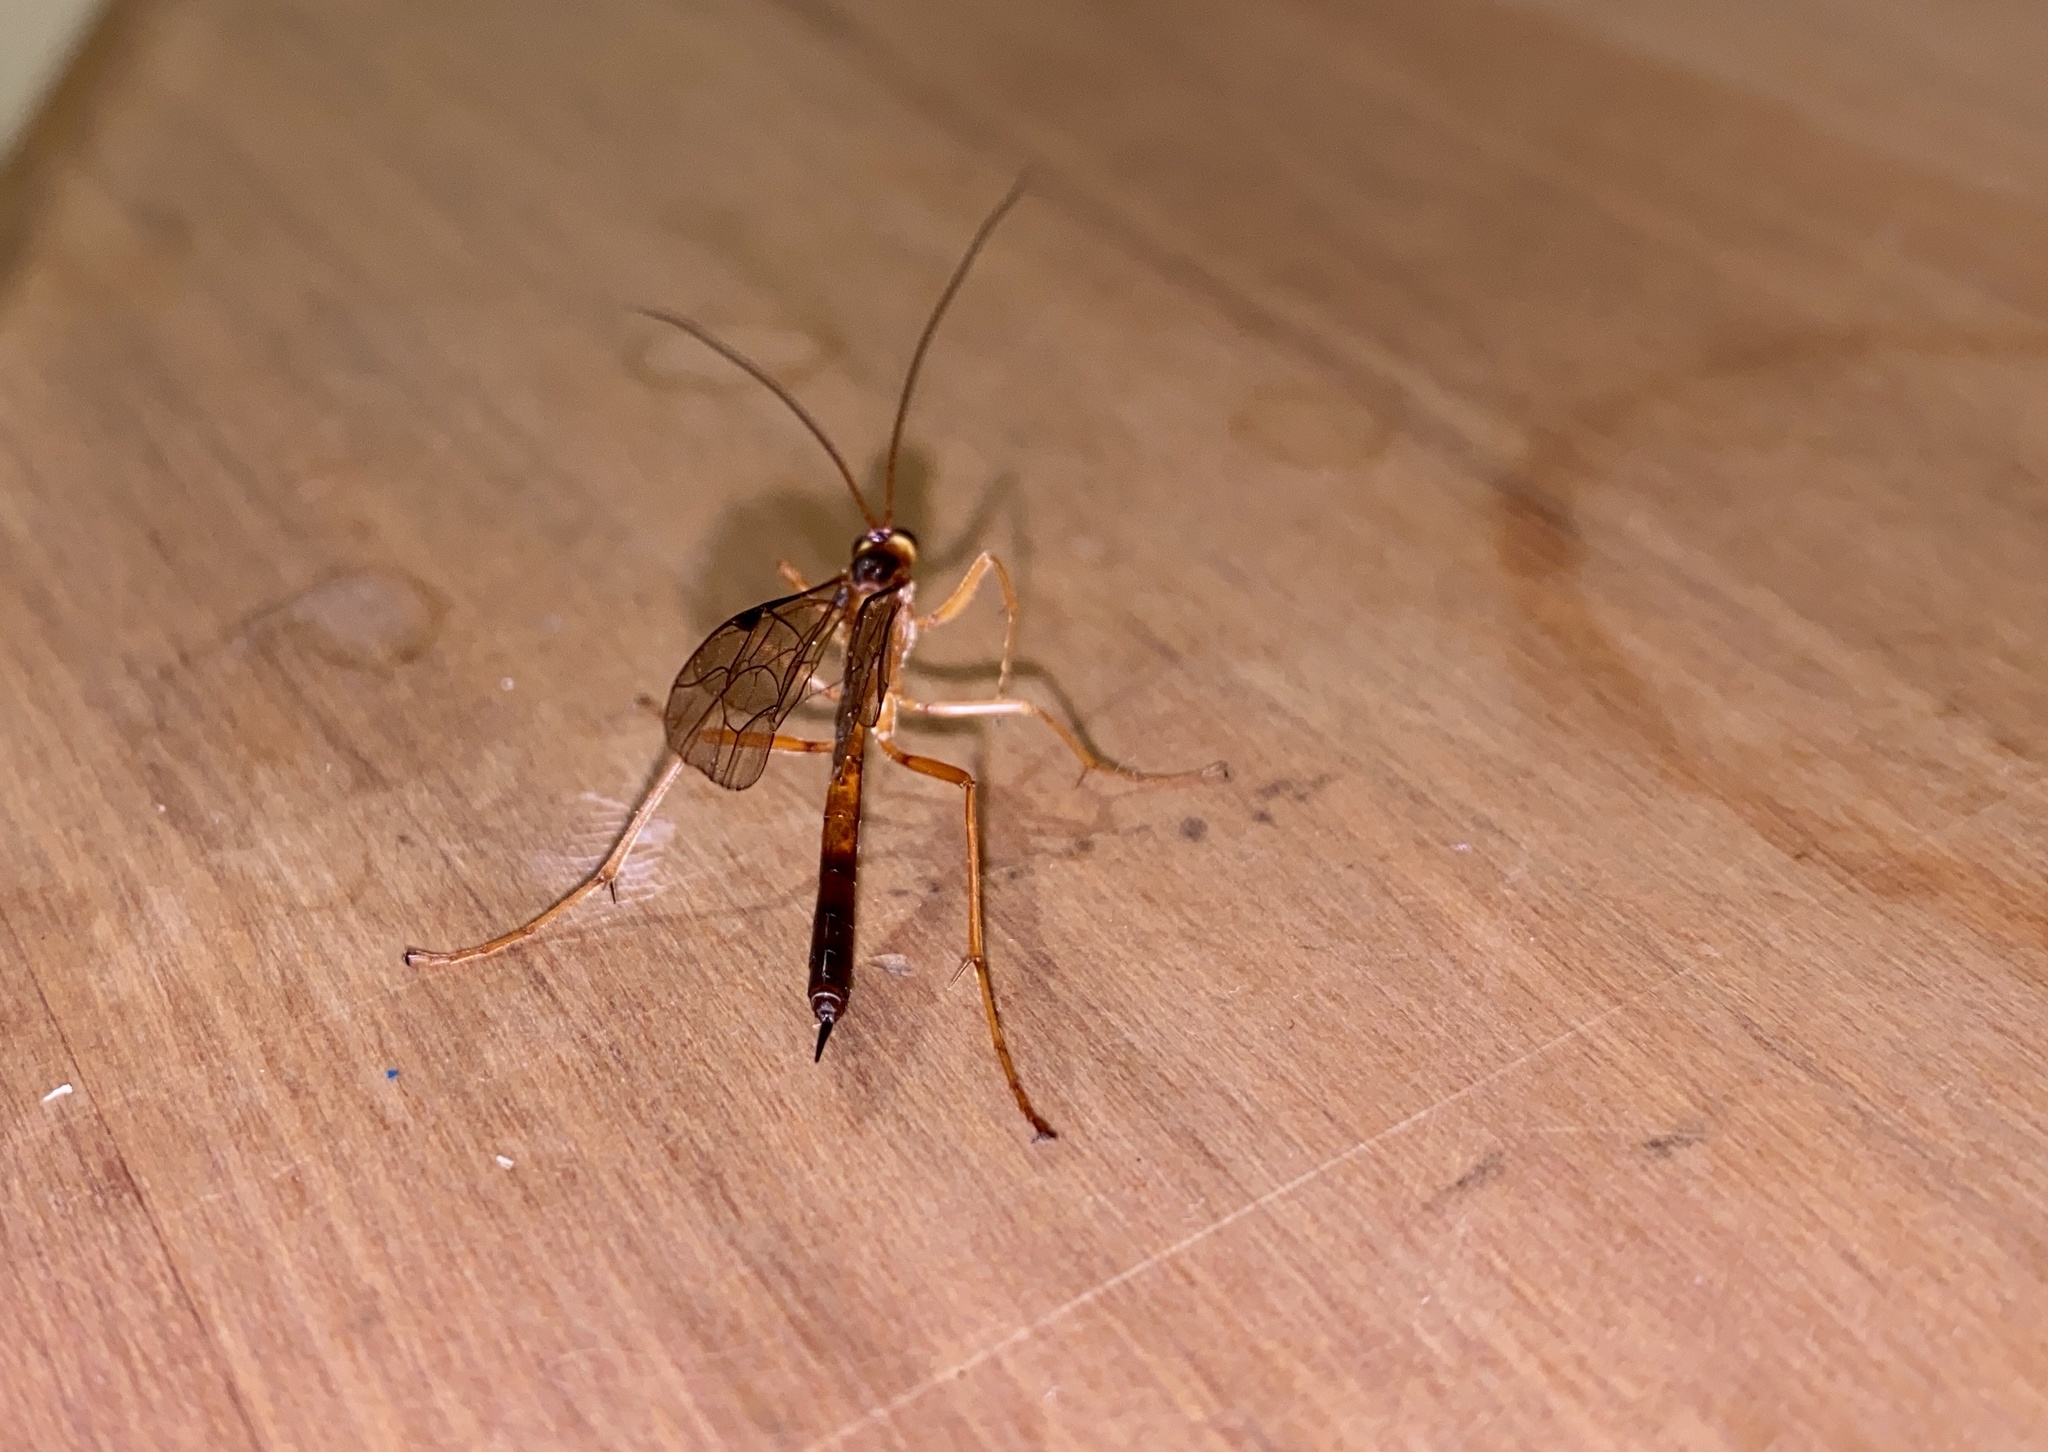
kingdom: Animalia
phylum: Arthropoda
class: Insecta
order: Hymenoptera
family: Ichneumonidae
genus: Netelia
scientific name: Netelia ephippiata
